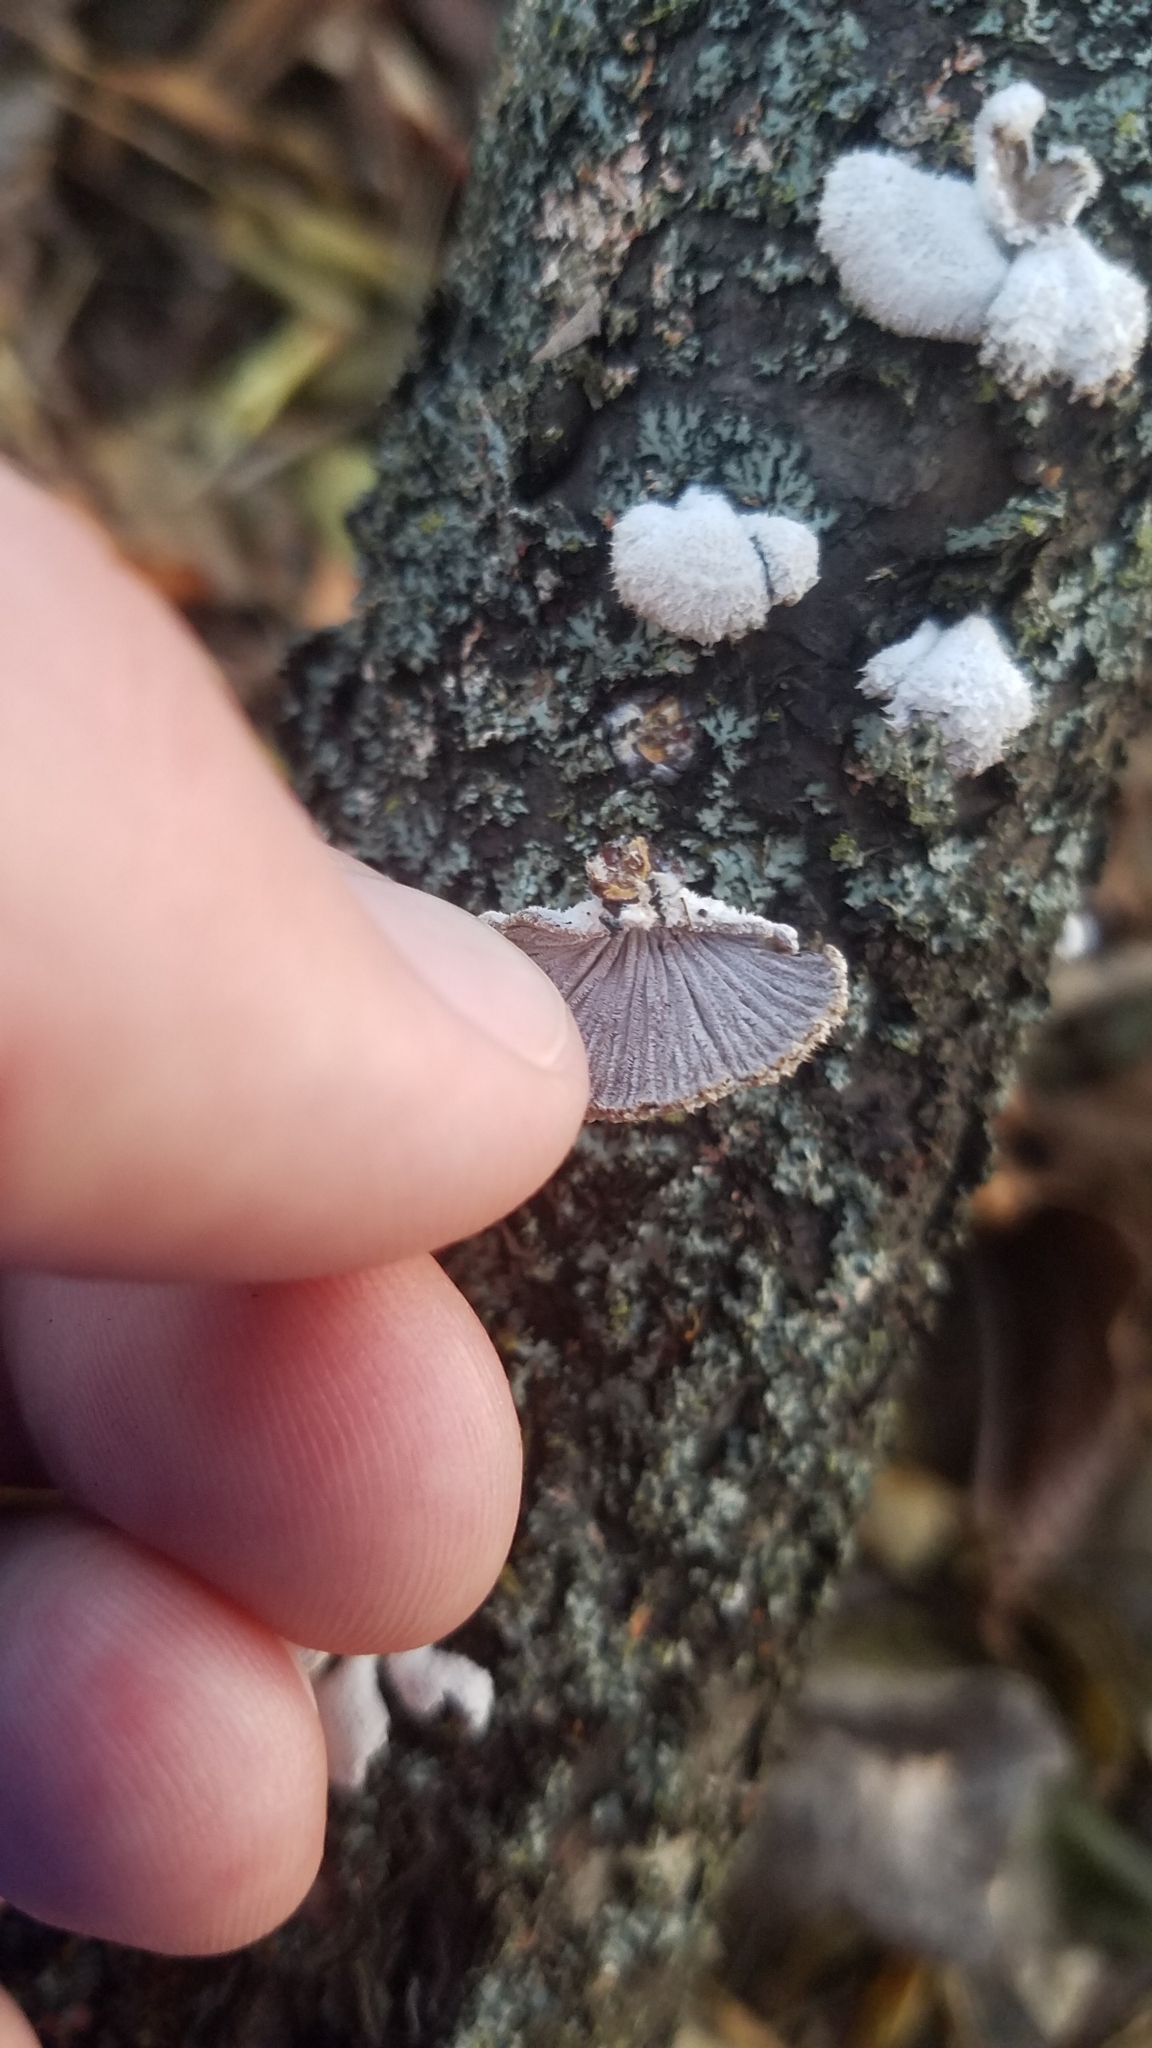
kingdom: Fungi
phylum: Basidiomycota
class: Agaricomycetes
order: Agaricales
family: Schizophyllaceae
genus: Schizophyllum
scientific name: Schizophyllum commune
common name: Common porecrust
